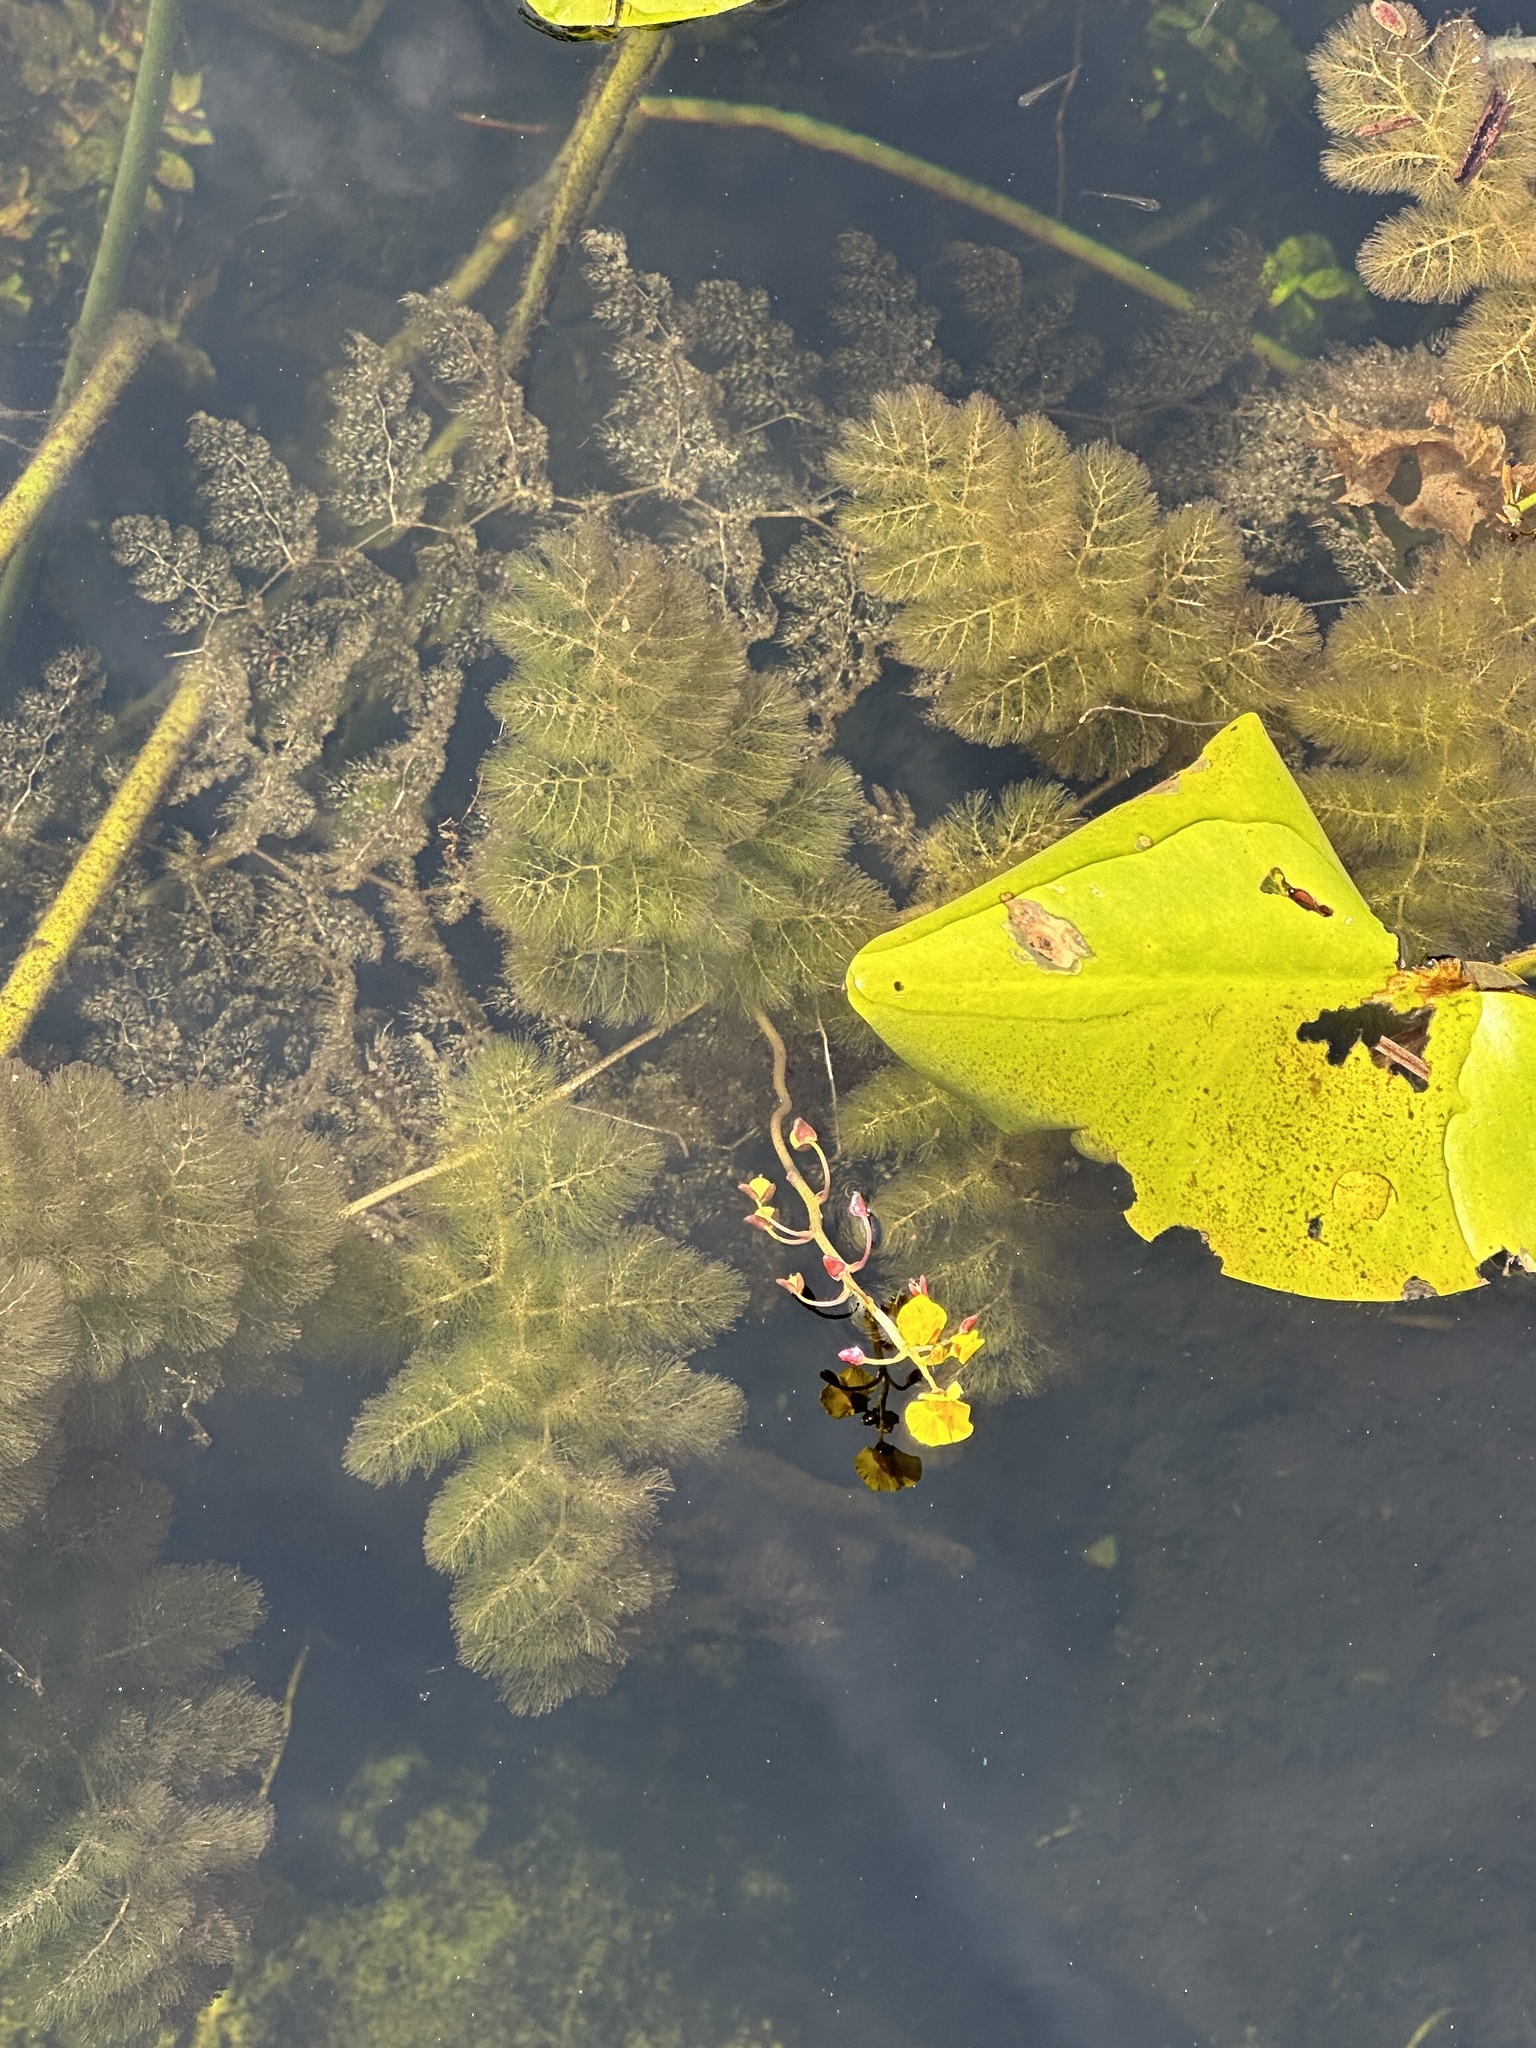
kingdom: Plantae
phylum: Tracheophyta
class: Magnoliopsida
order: Lamiales
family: Lentibulariaceae
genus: Utricularia
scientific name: Utricularia foliosa
